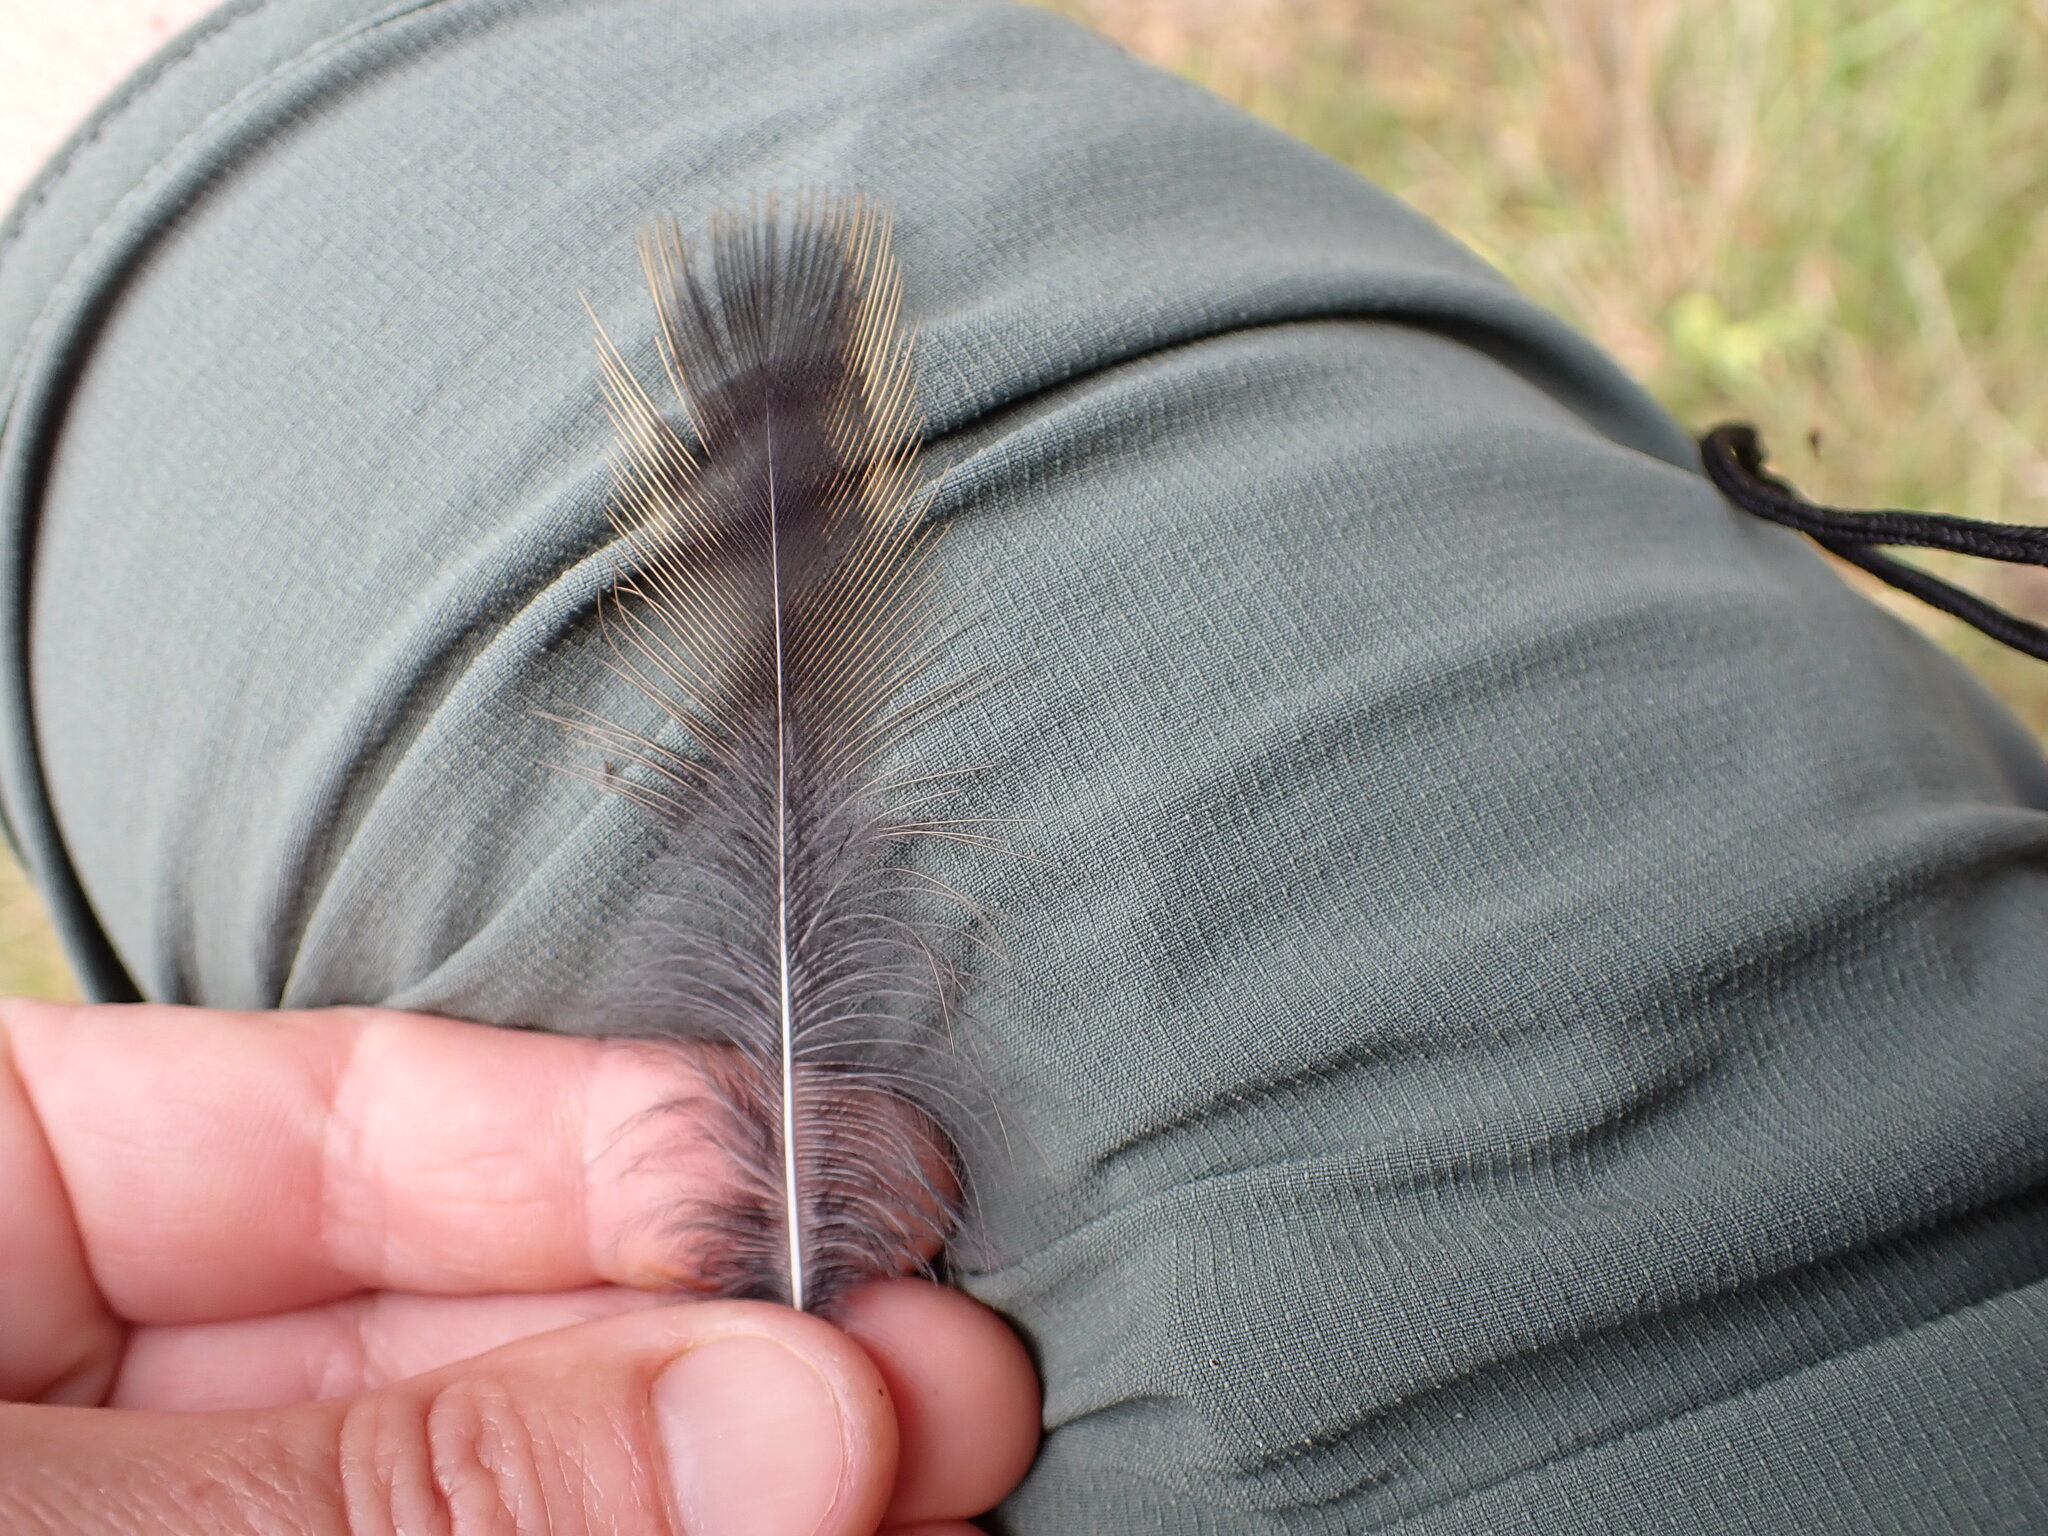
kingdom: Animalia
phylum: Chordata
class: Aves
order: Gruiformes
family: Rallidae
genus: Gallirallus
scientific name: Gallirallus australis
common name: Weka
